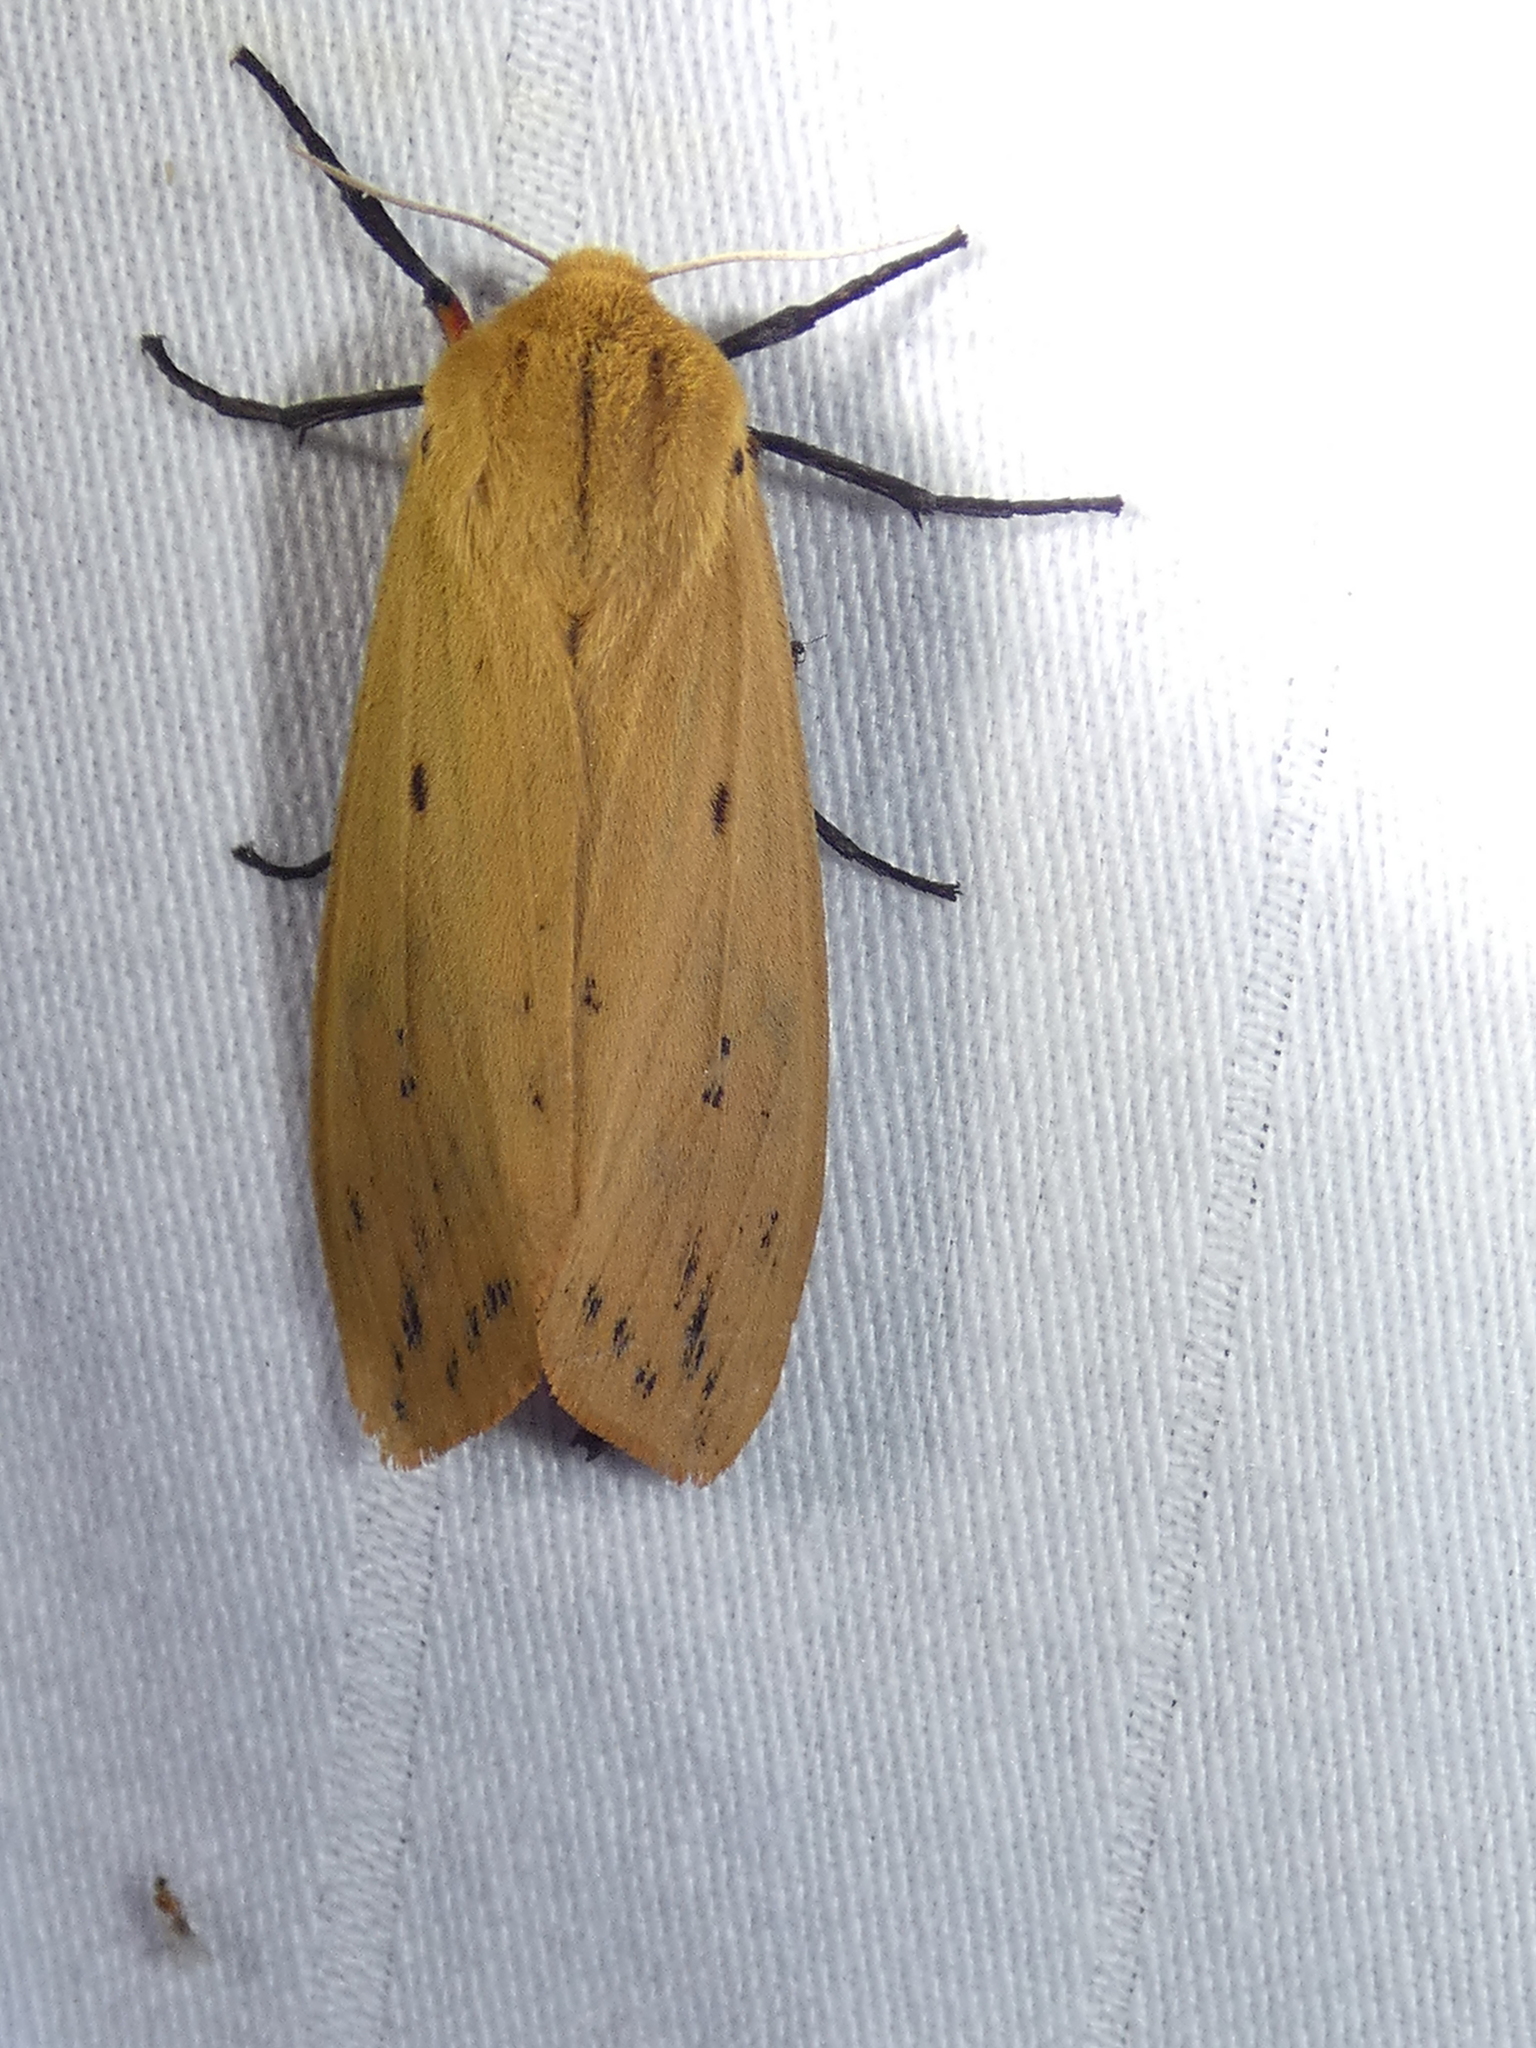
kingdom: Animalia
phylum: Arthropoda
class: Insecta
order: Lepidoptera
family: Erebidae
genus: Pyrrharctia
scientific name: Pyrrharctia isabella
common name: Isabella tiger moth
